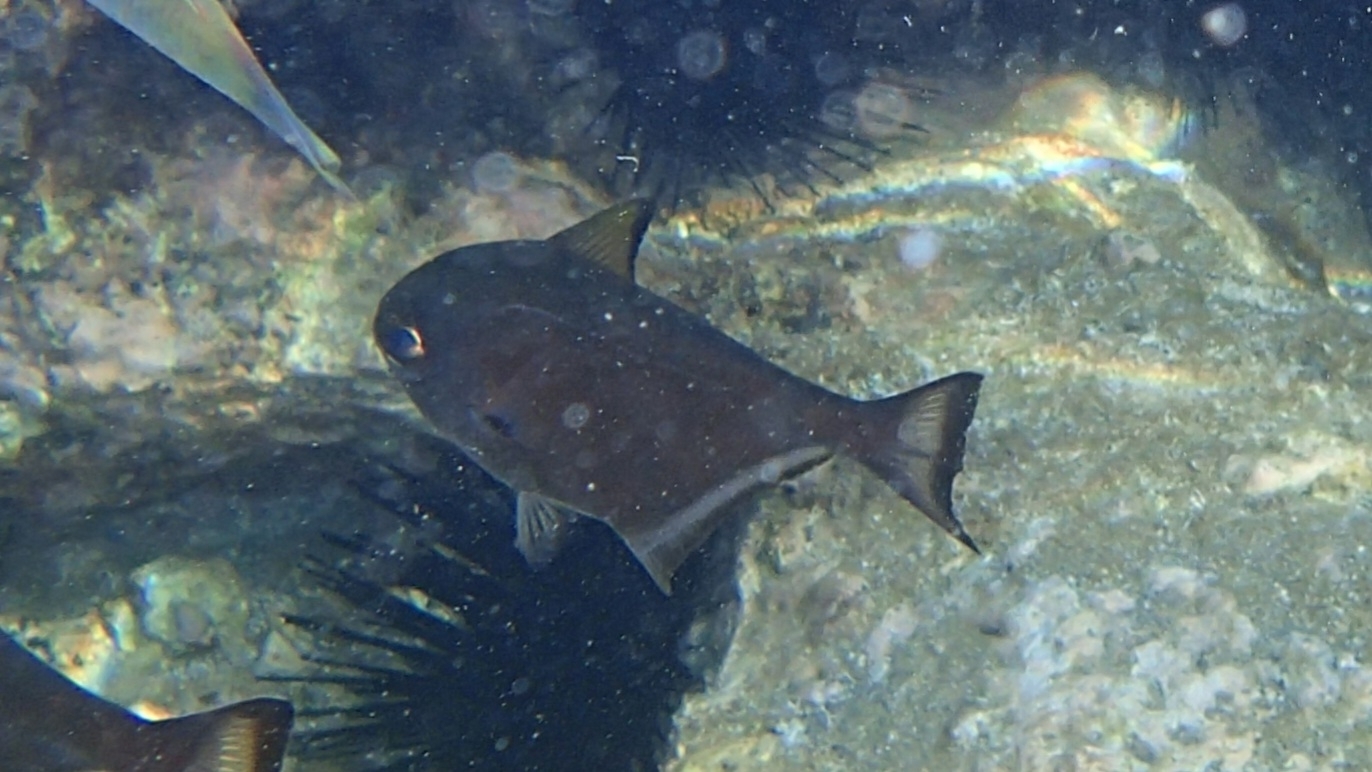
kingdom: Animalia
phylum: Chordata
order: Perciformes
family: Pempheridae
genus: Pempheris
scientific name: Pempheris bexillon
